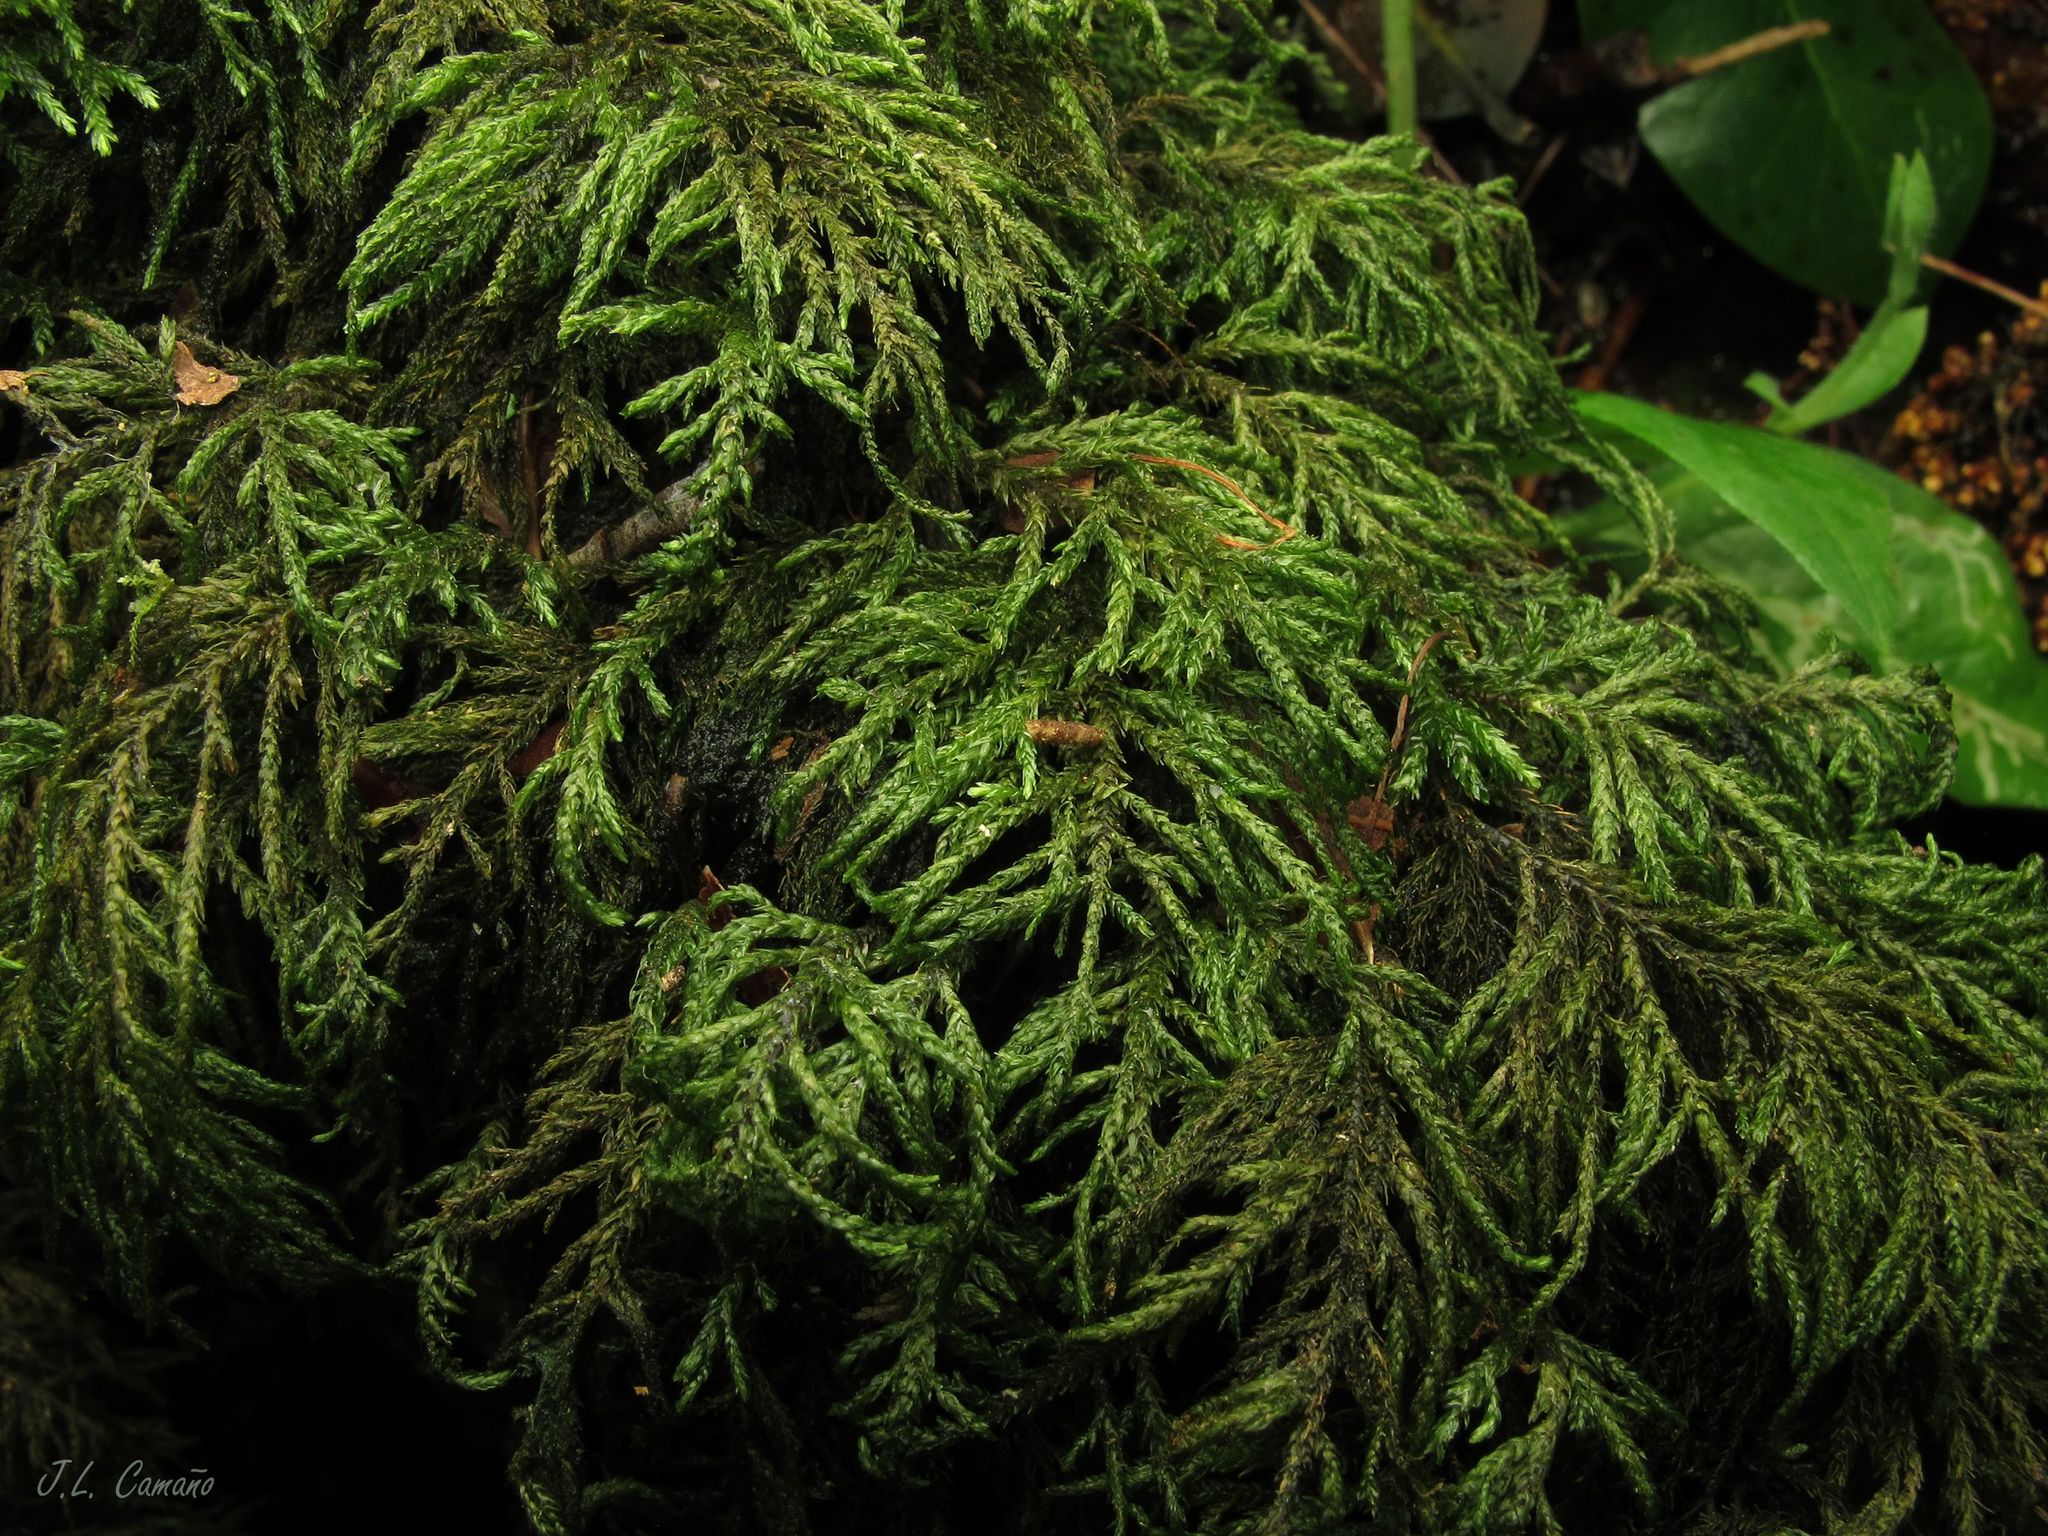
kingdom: Plantae
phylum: Bryophyta
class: Bryopsida
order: Hypnales
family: Neckeraceae
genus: Thamnobryum
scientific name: Thamnobryum alopecurum
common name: Fox-tail feather-moss
